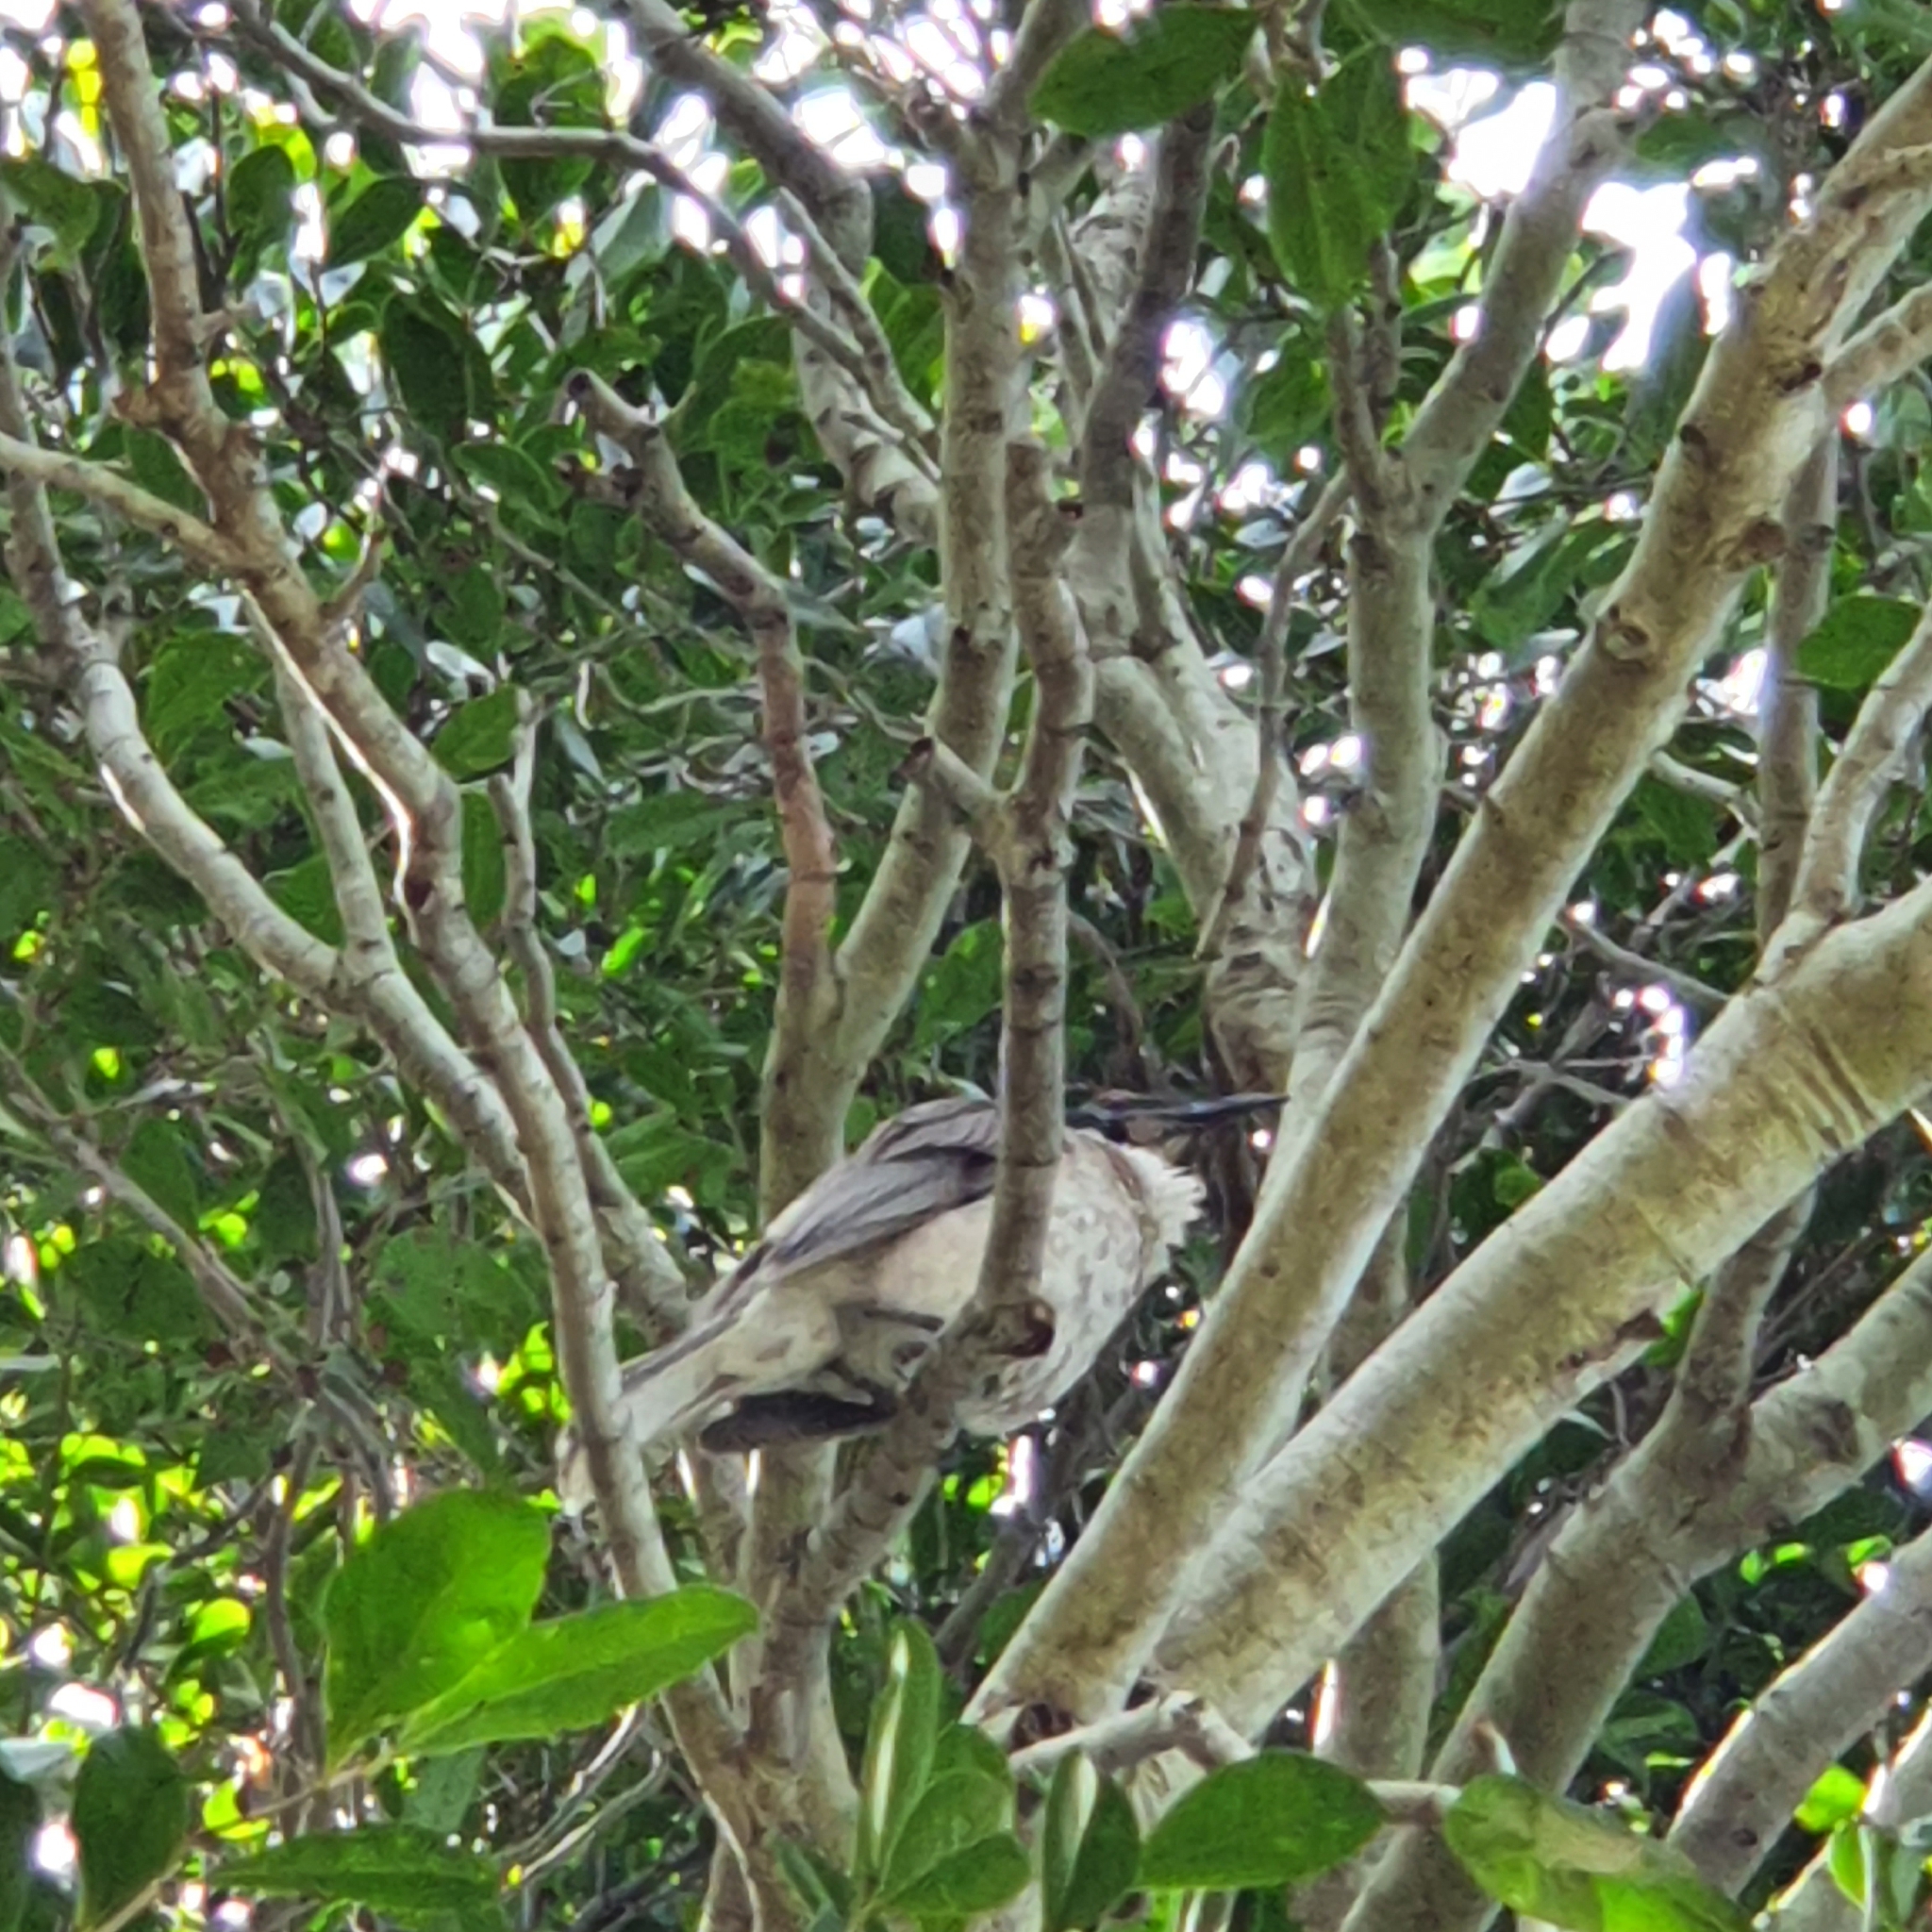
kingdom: Animalia
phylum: Chordata
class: Aves
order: Passeriformes
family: Meliphagidae
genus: Philemon
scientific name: Philemon corniculatus
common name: Noisy friarbird
